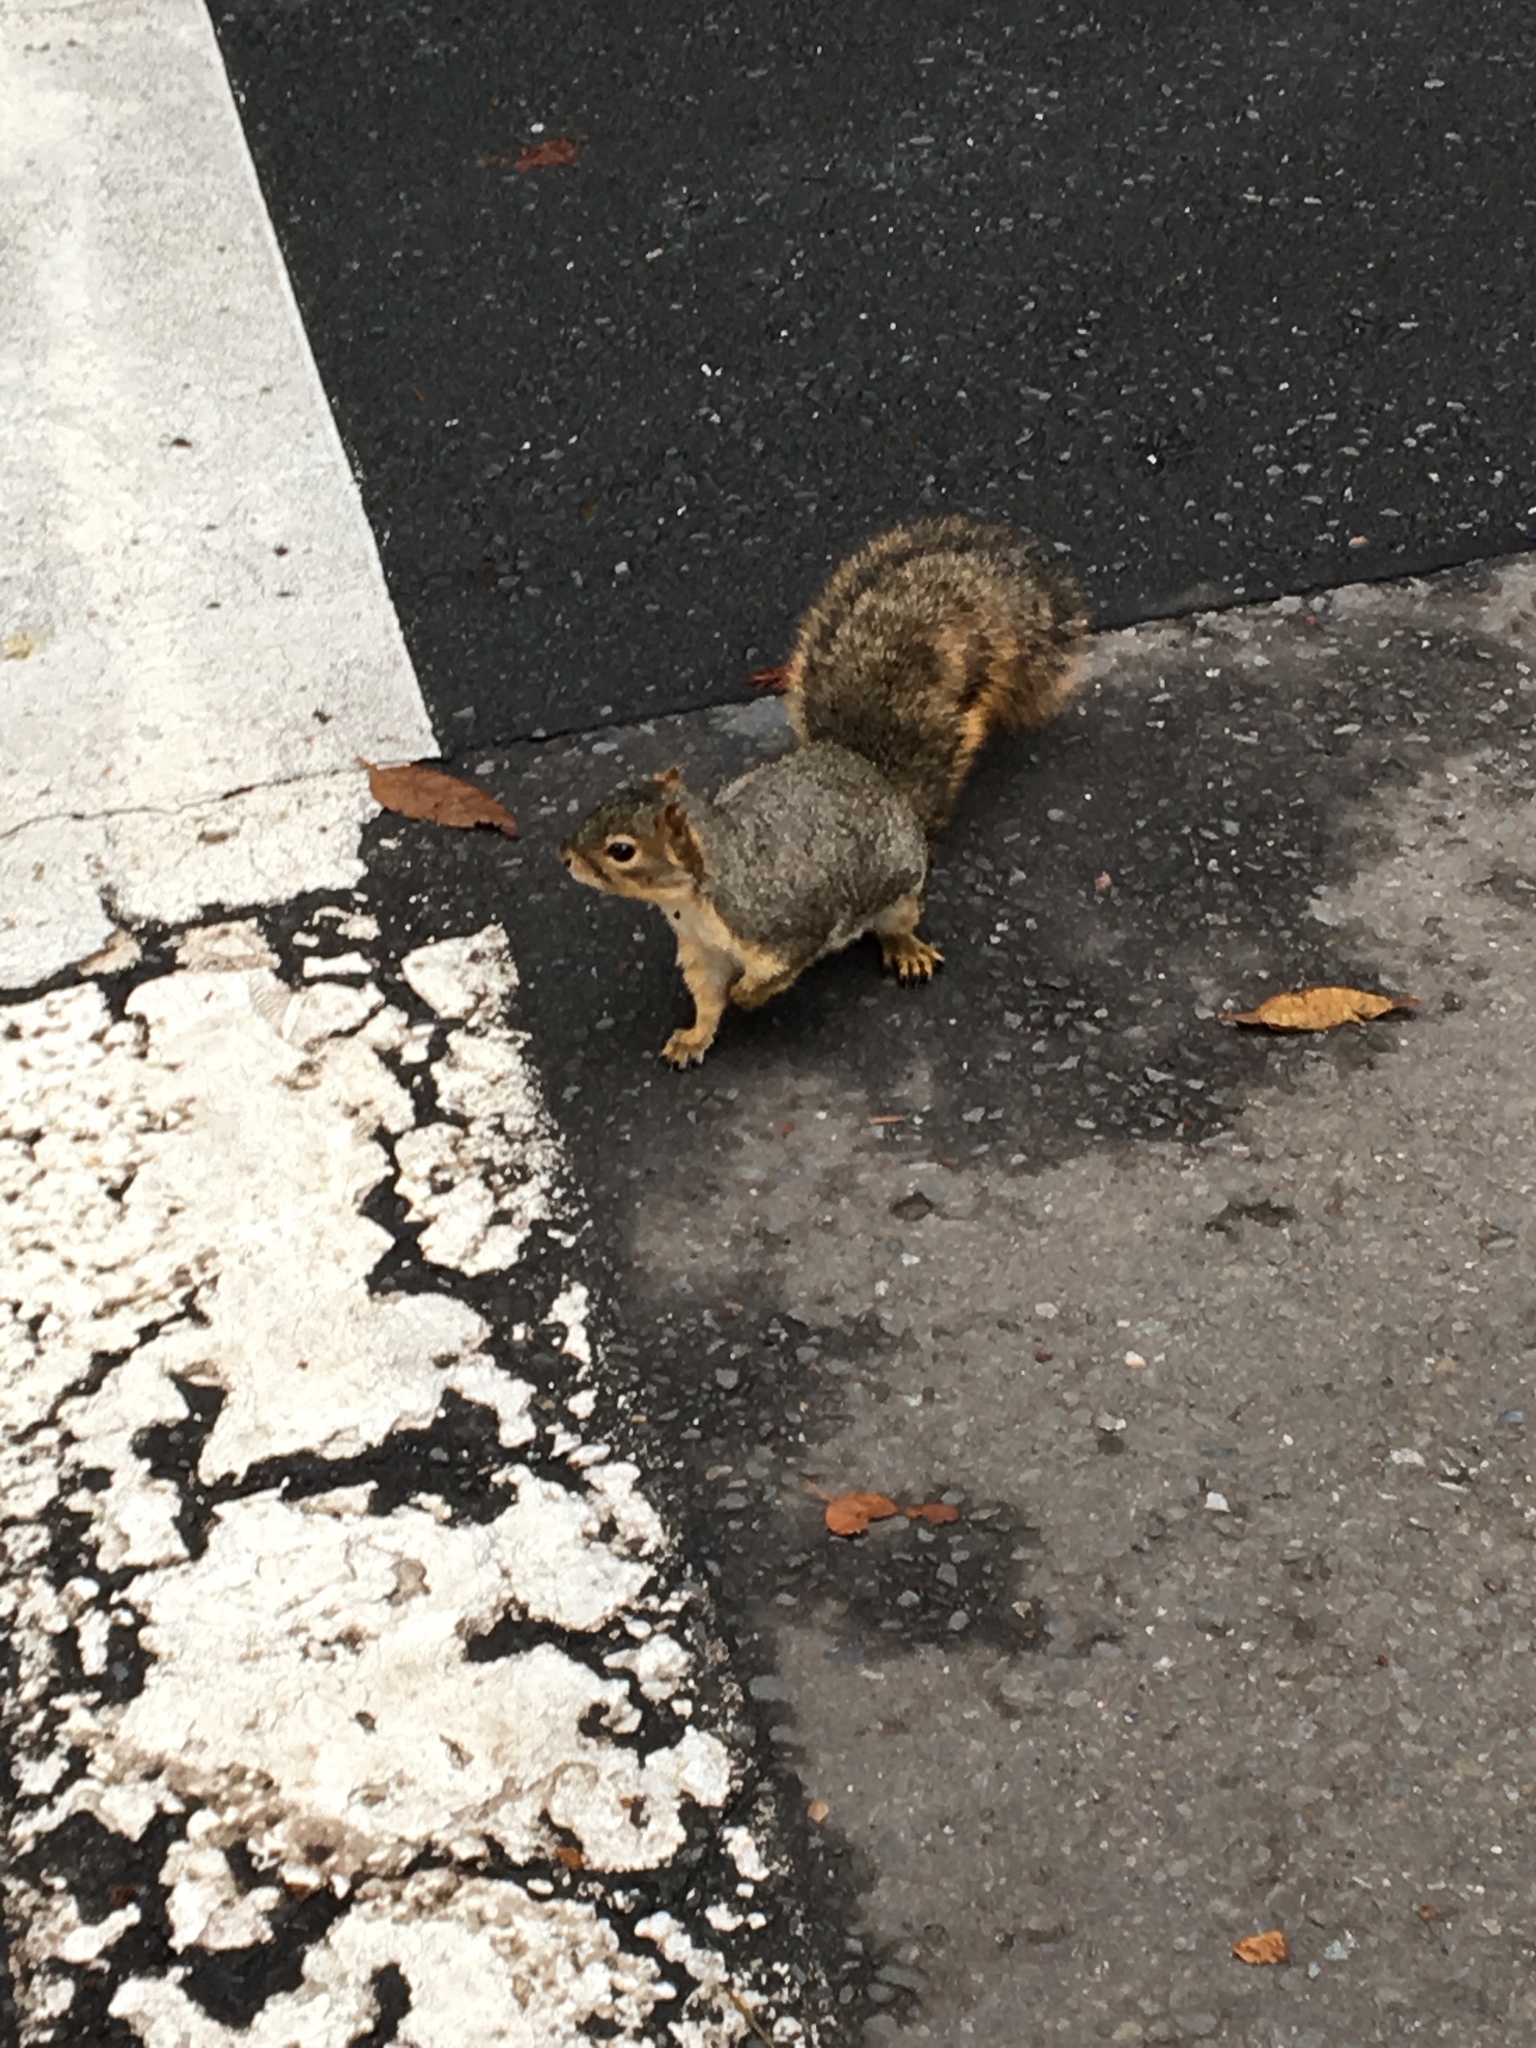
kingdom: Animalia
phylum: Chordata
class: Mammalia
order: Rodentia
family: Sciuridae
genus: Sciurus
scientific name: Sciurus niger
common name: Fox squirrel
